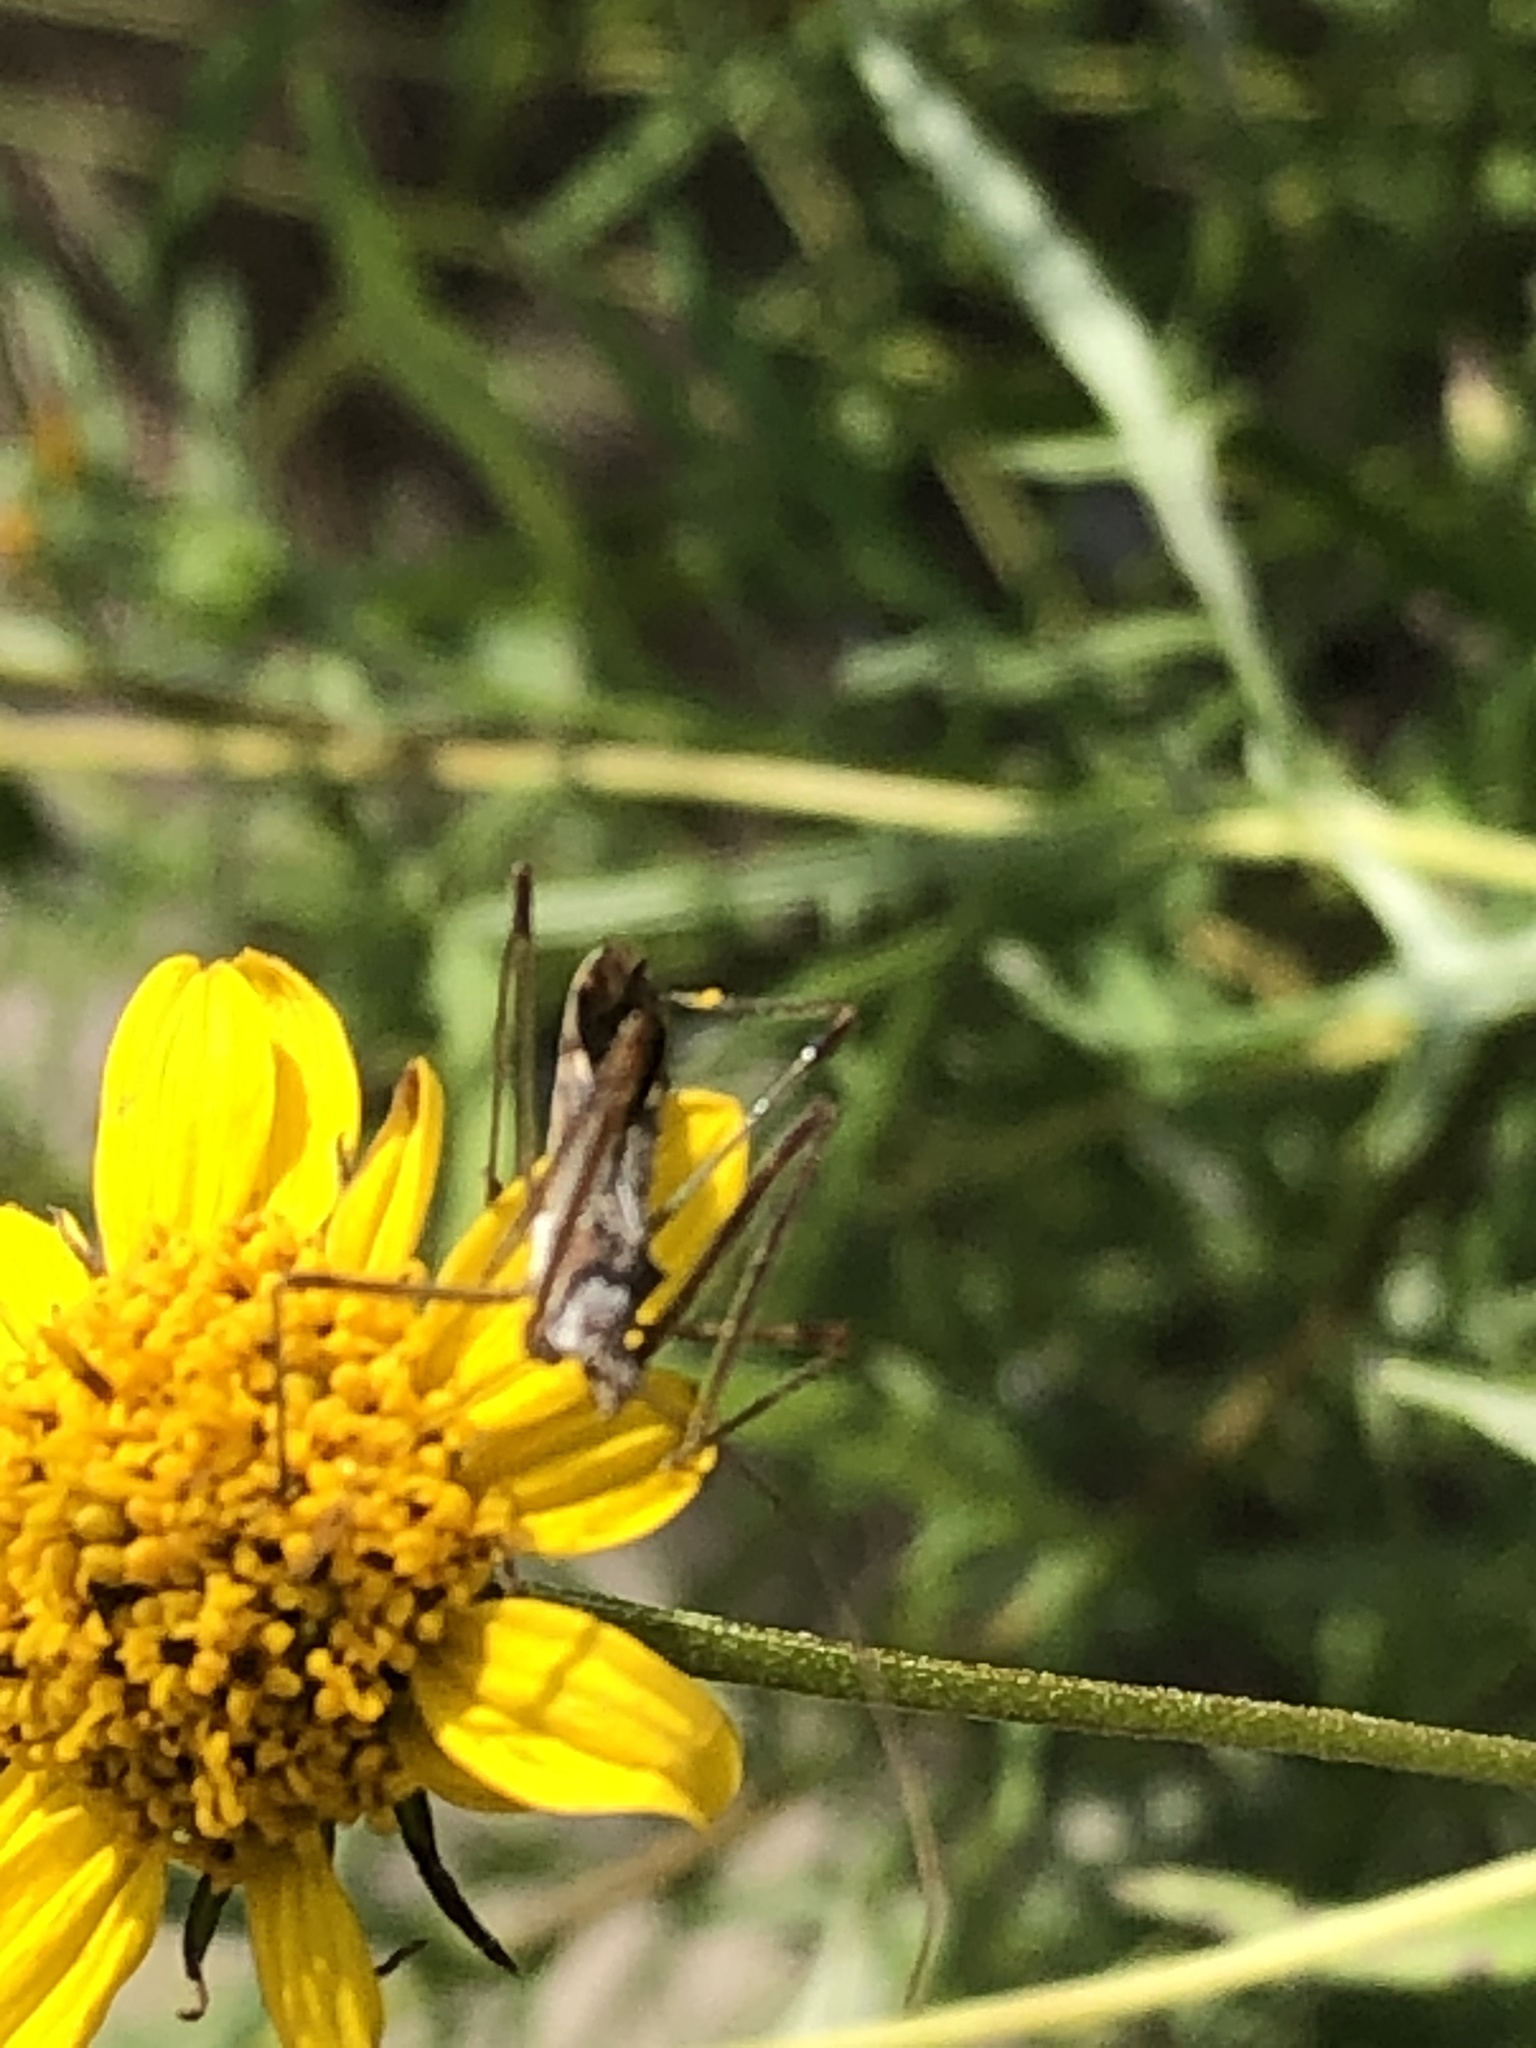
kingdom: Animalia
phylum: Arthropoda
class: Insecta
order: Hemiptera
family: Reduviidae
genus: Zelus
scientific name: Zelus tetracanthus
